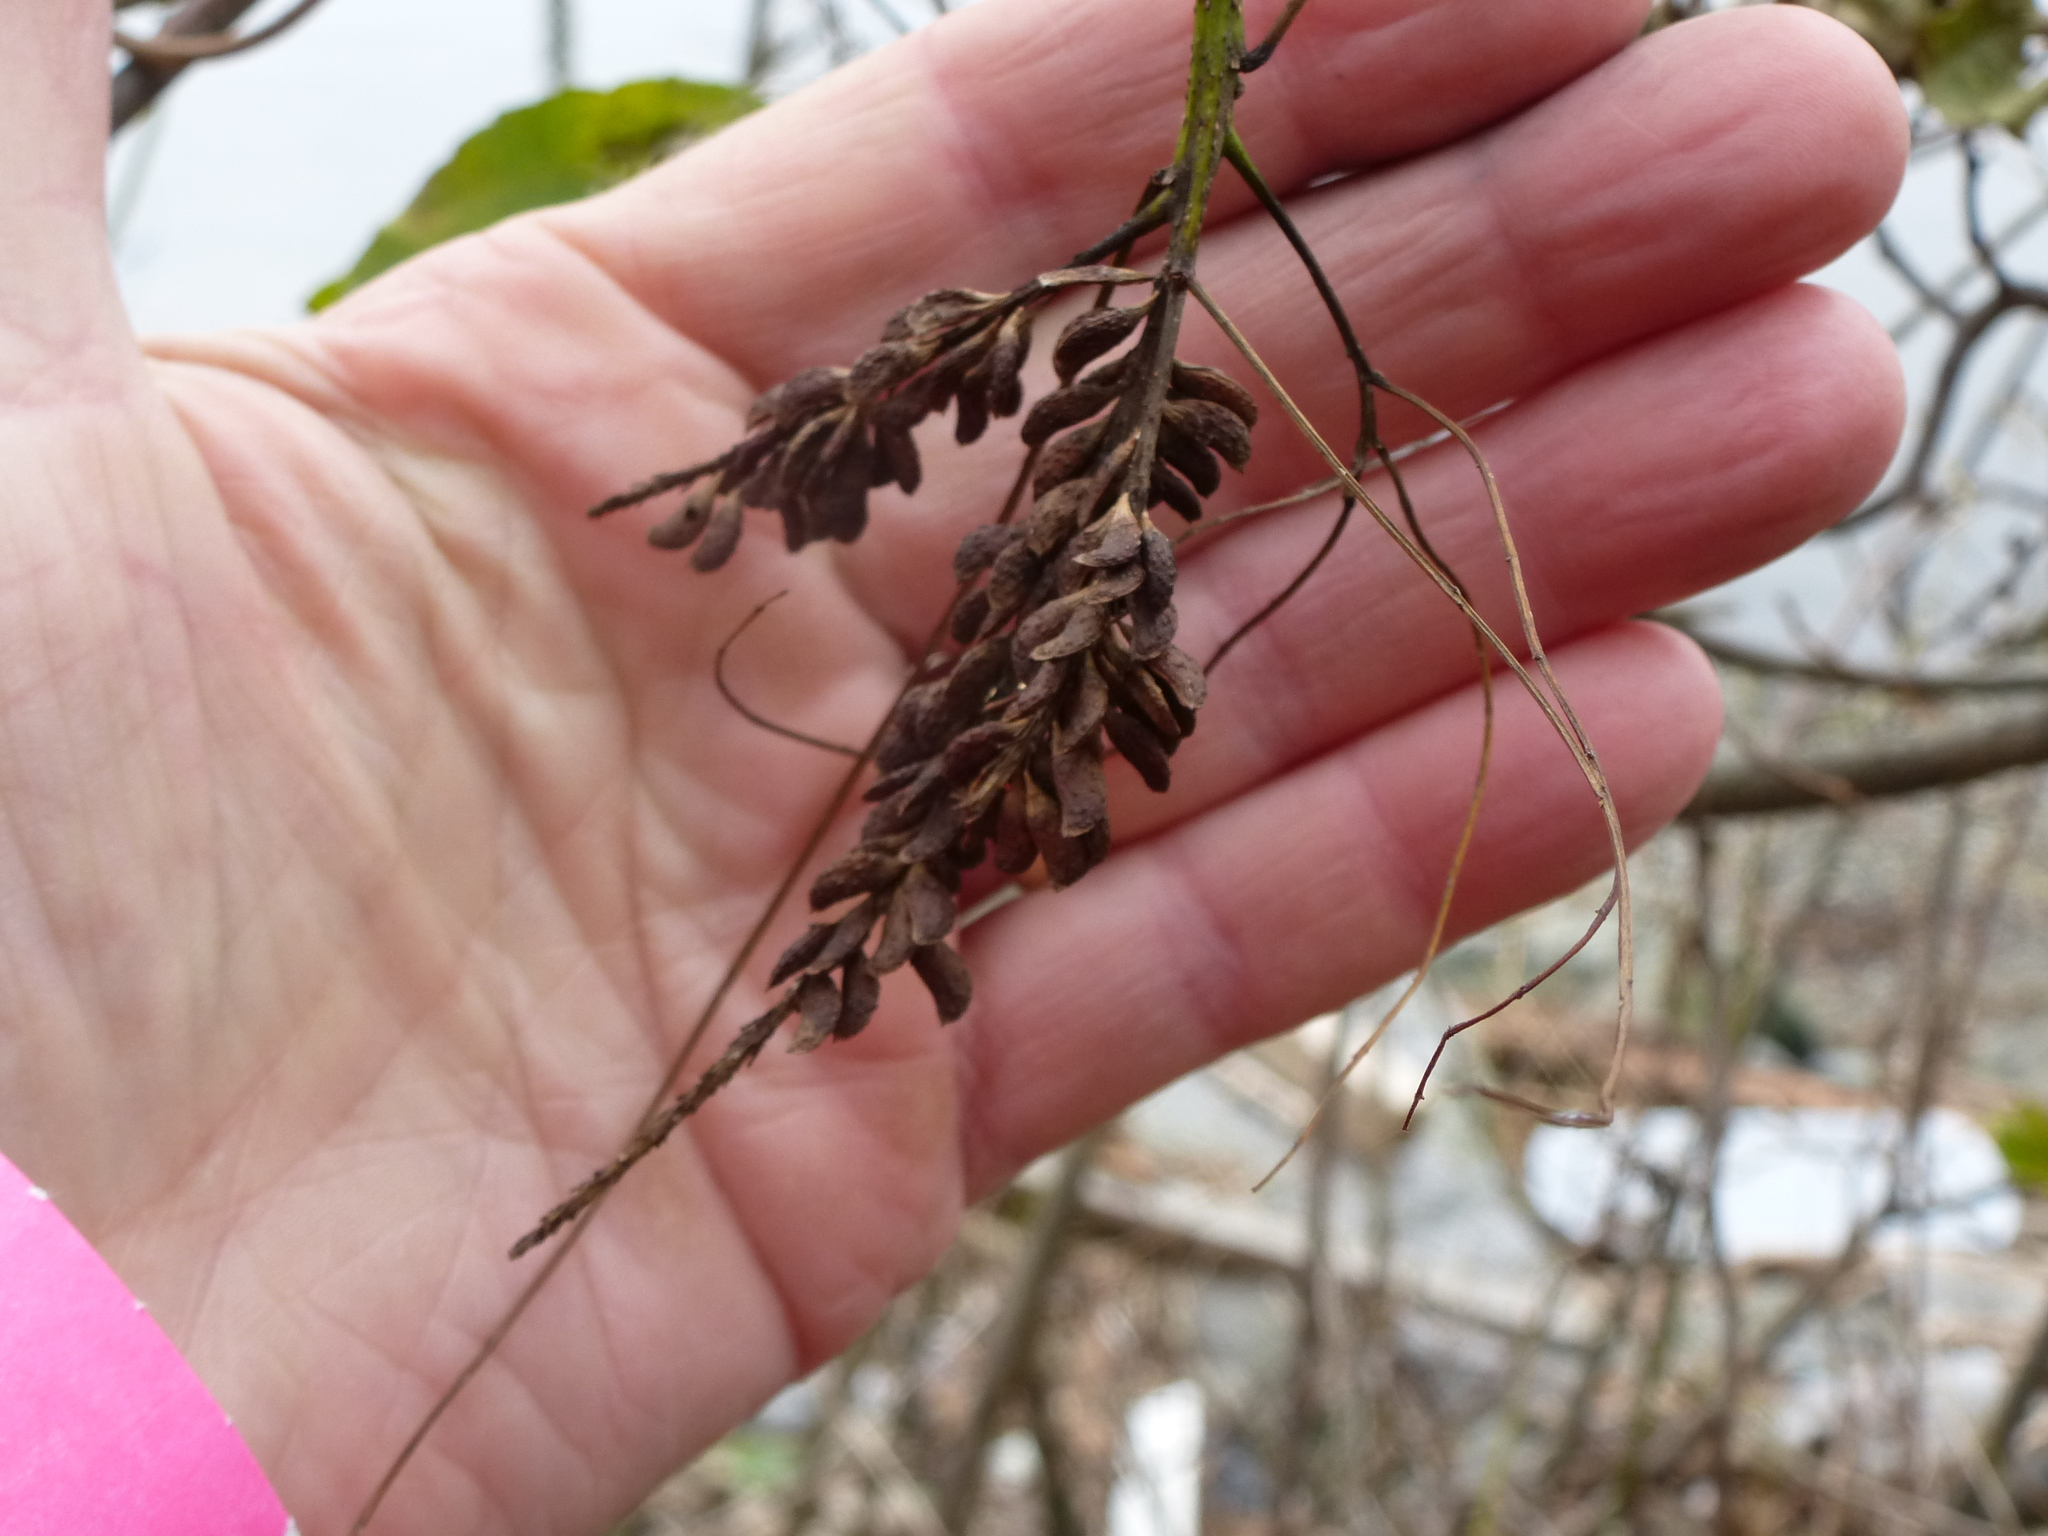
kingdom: Plantae
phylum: Tracheophyta
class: Magnoliopsida
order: Fabales
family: Fabaceae
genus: Amorpha
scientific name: Amorpha fruticosa
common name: False indigo
